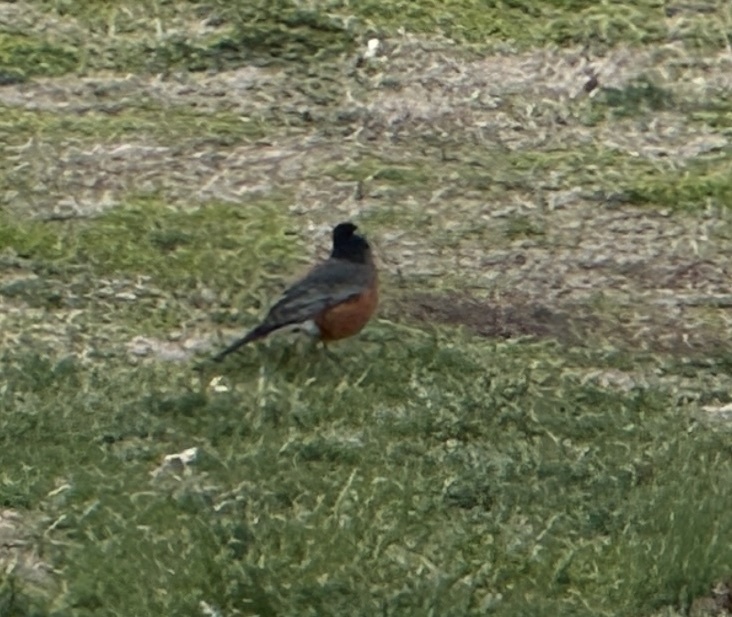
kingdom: Animalia
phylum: Chordata
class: Aves
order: Passeriformes
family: Turdidae
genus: Turdus
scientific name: Turdus migratorius
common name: American robin
